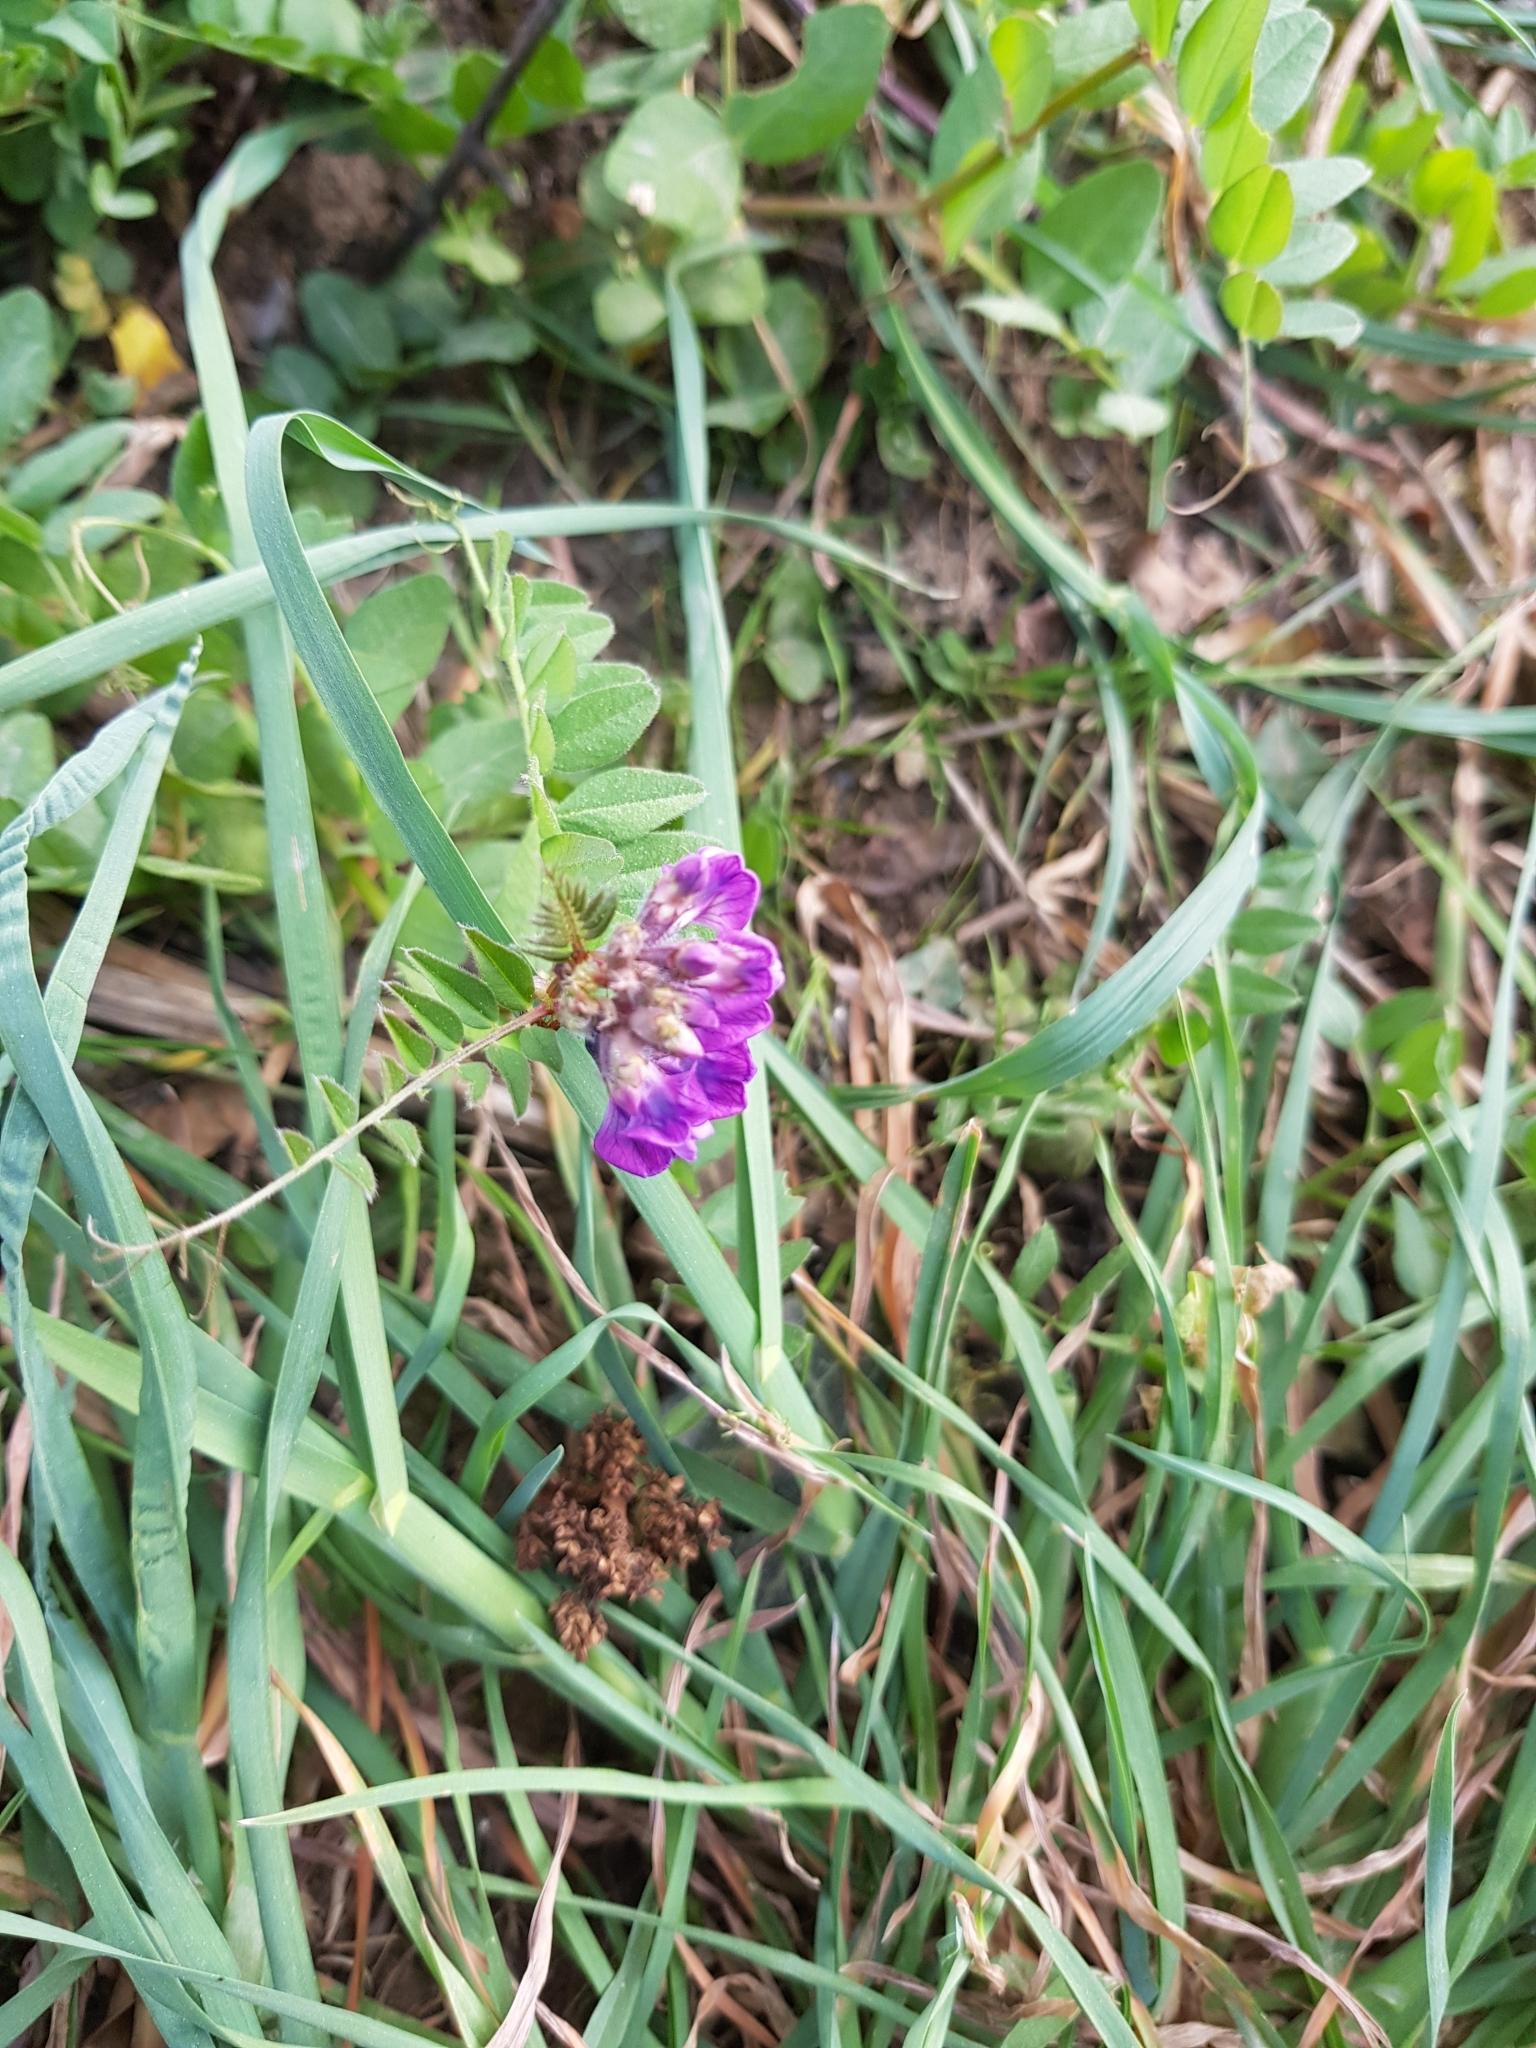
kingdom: Plantae
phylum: Tracheophyta
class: Magnoliopsida
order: Fabales
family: Fabaceae
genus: Vicia
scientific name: Vicia sepium
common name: Bush vetch
